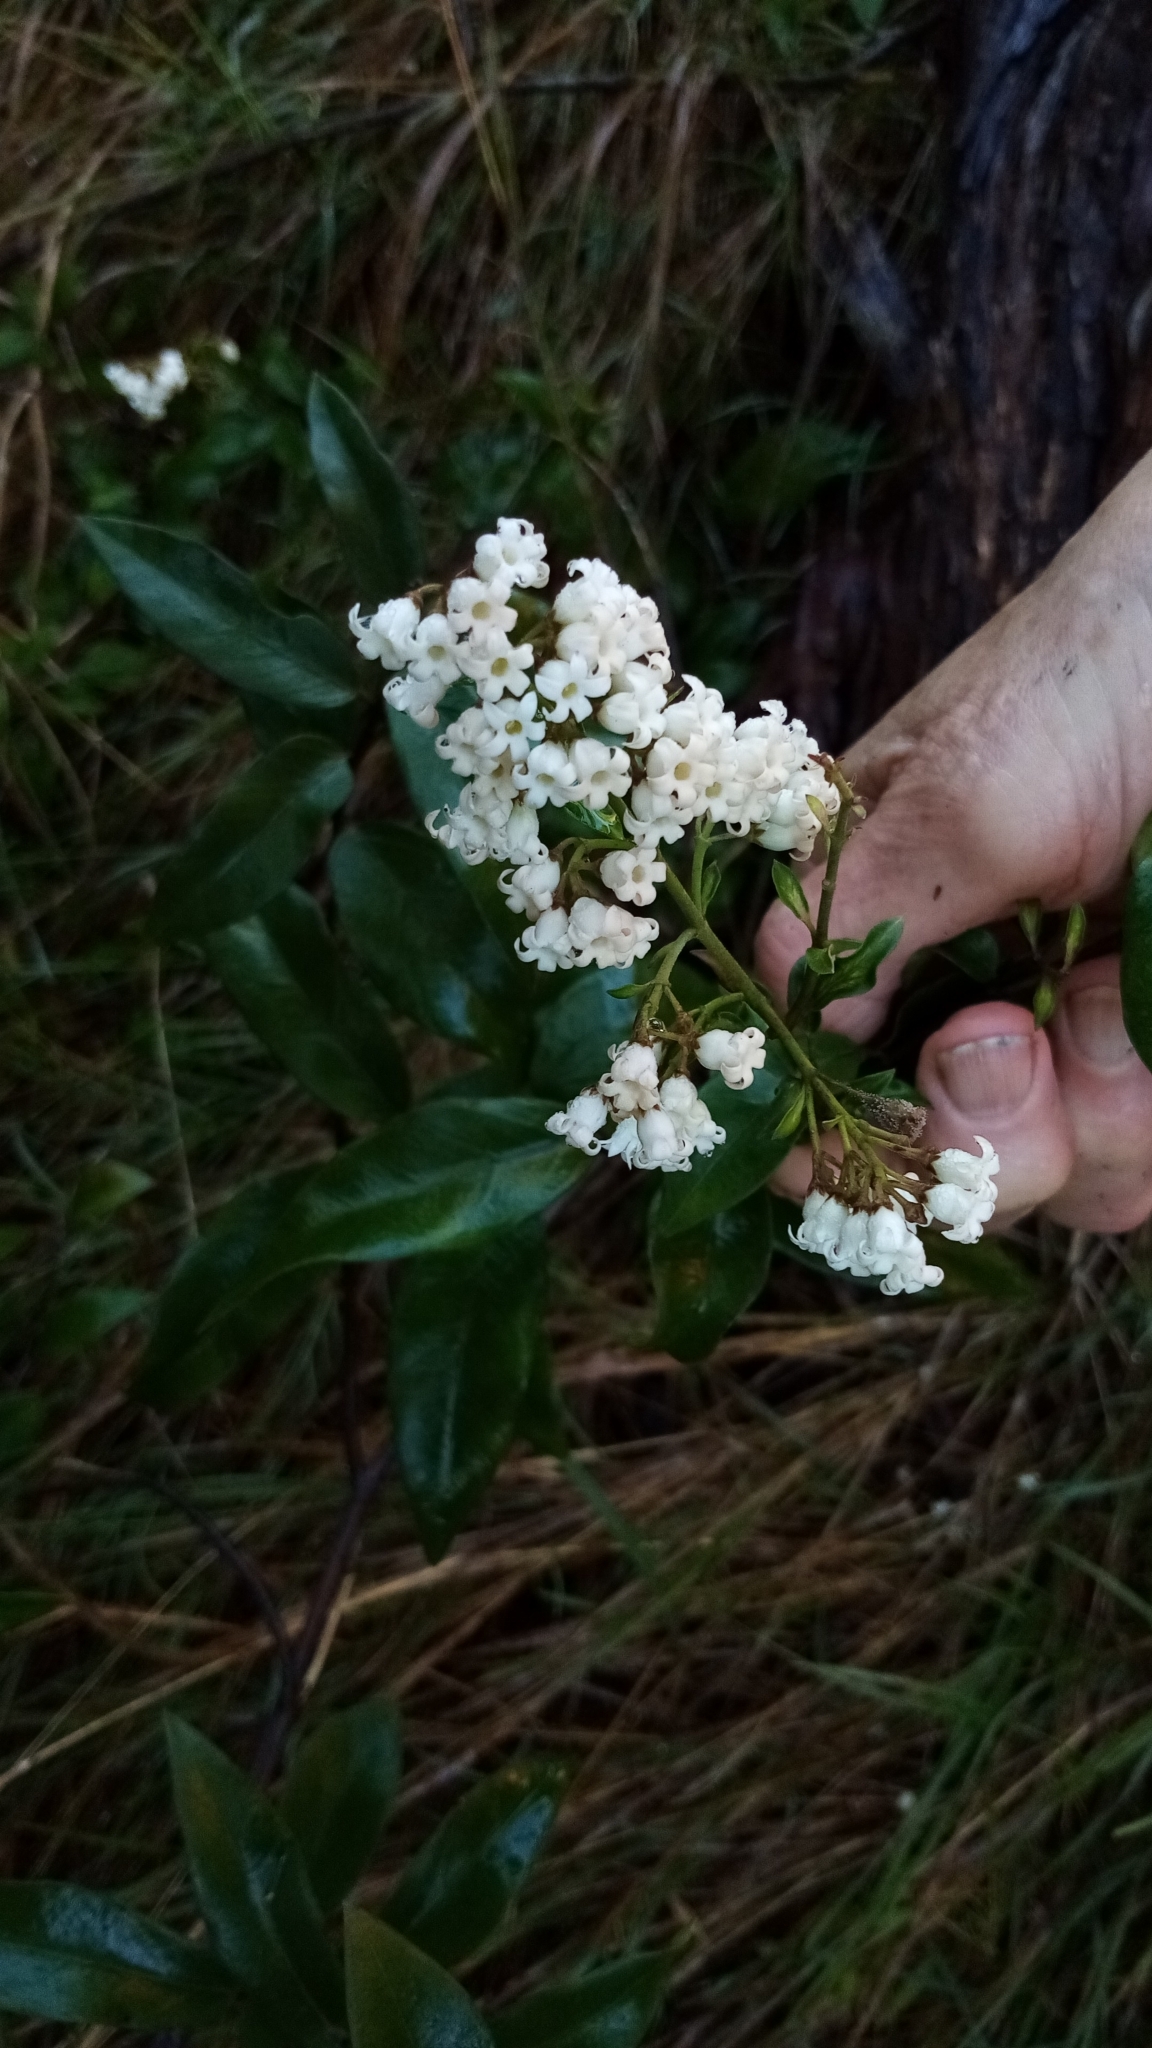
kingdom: Plantae
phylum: Tracheophyta
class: Magnoliopsida
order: Gentianales
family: Apocynaceae
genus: Parsonsia
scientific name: Parsonsia heterophylla
